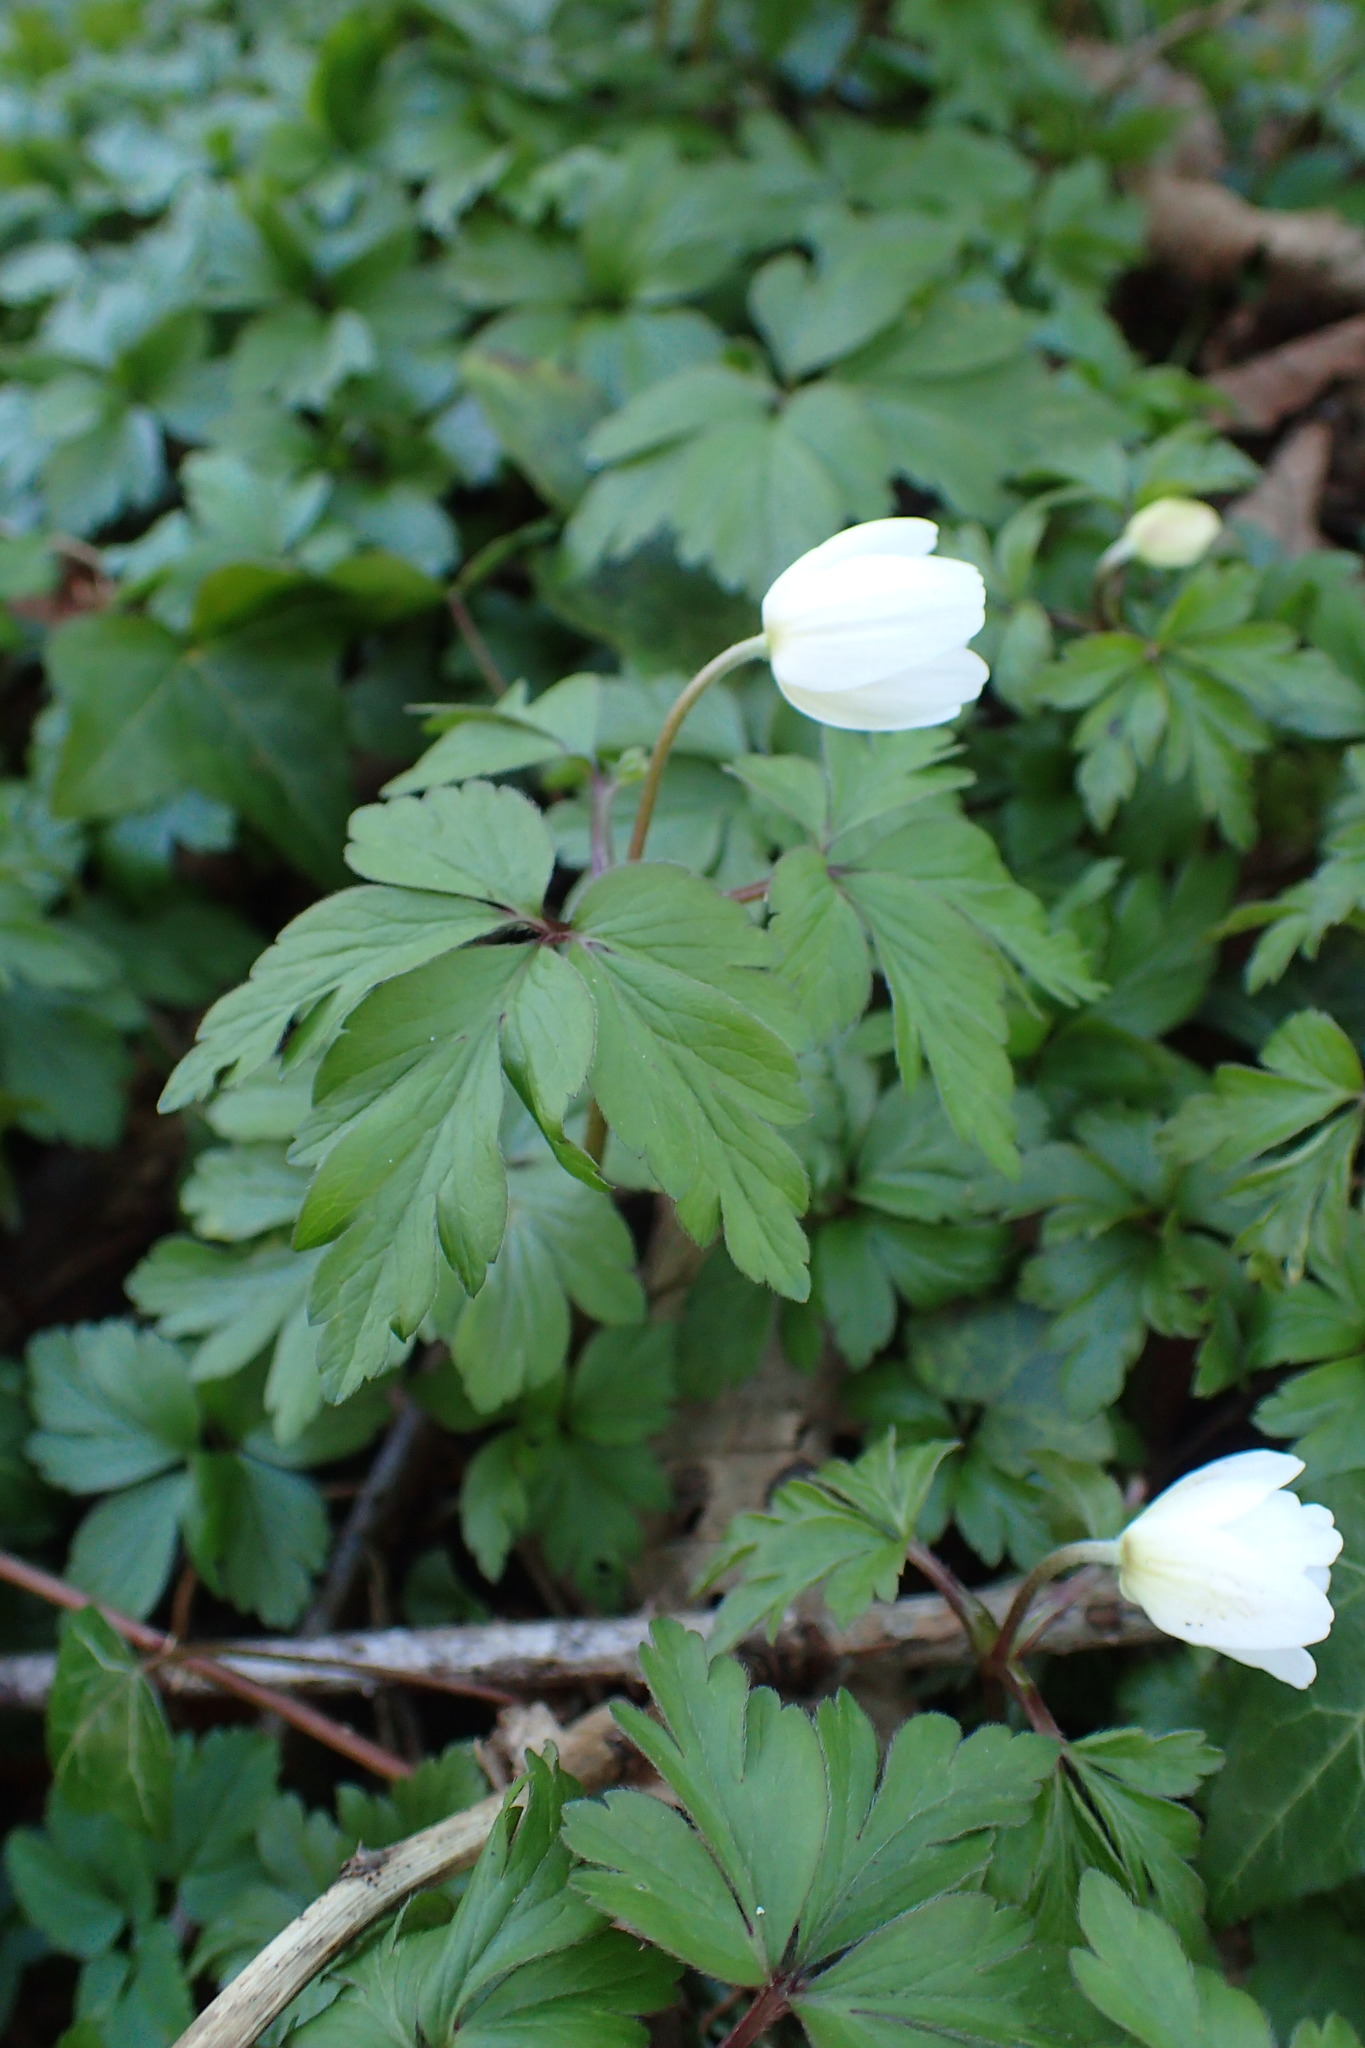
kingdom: Plantae
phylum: Tracheophyta
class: Magnoliopsida
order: Ranunculales
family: Ranunculaceae
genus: Anemone
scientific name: Anemone nemorosa
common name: Wood anemone
